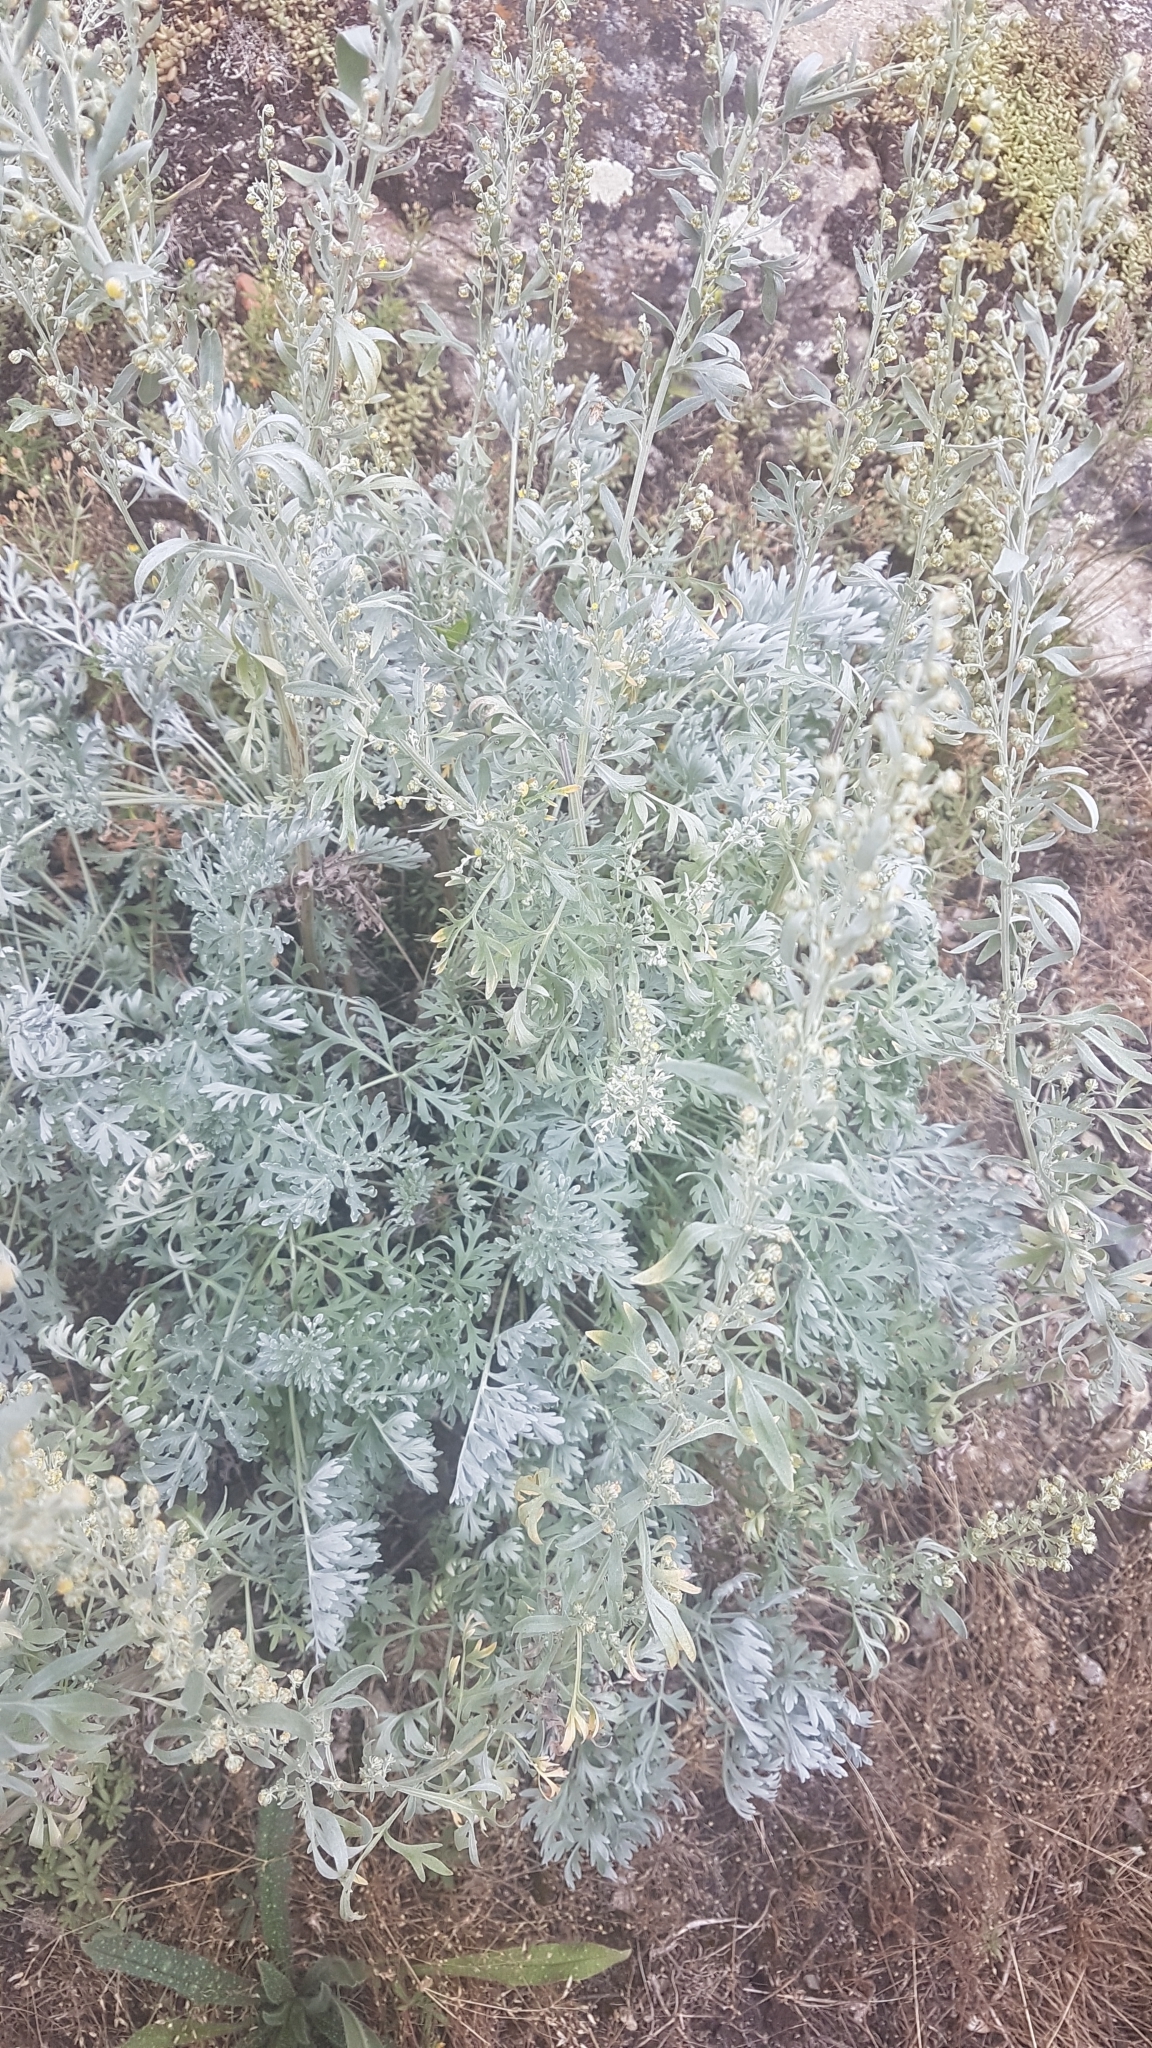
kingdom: Plantae
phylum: Tracheophyta
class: Magnoliopsida
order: Asterales
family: Asteraceae
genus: Artemisia
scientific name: Artemisia absinthium
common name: Wormwood
